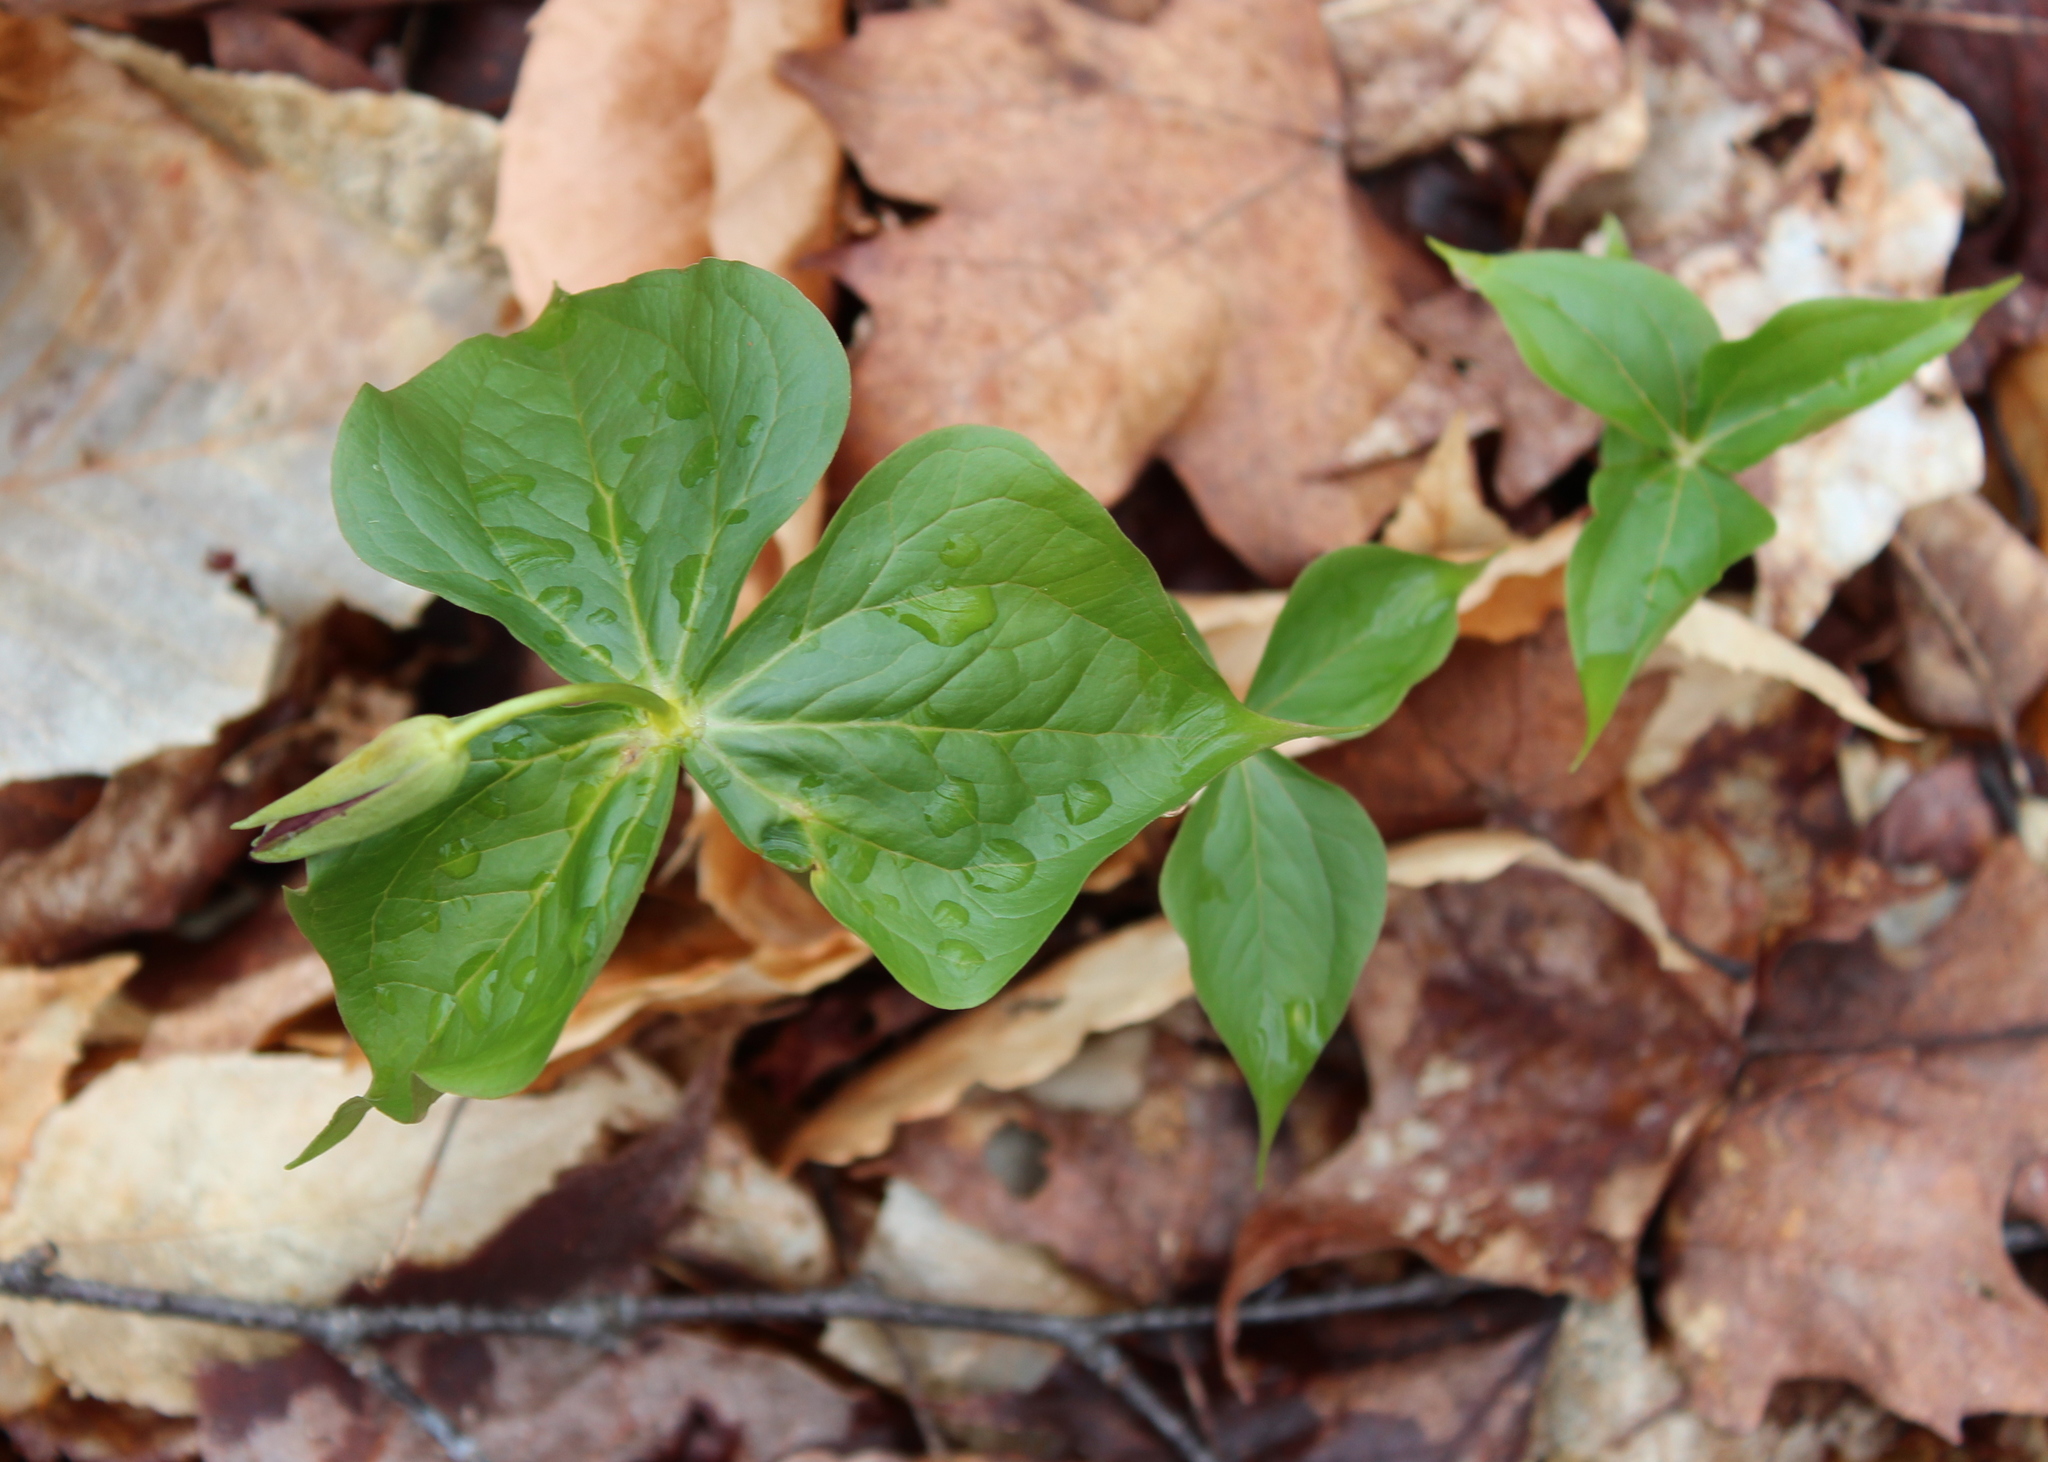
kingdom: Plantae
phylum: Tracheophyta
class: Liliopsida
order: Liliales
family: Melanthiaceae
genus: Trillium
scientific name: Trillium erectum
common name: Purple trillium
